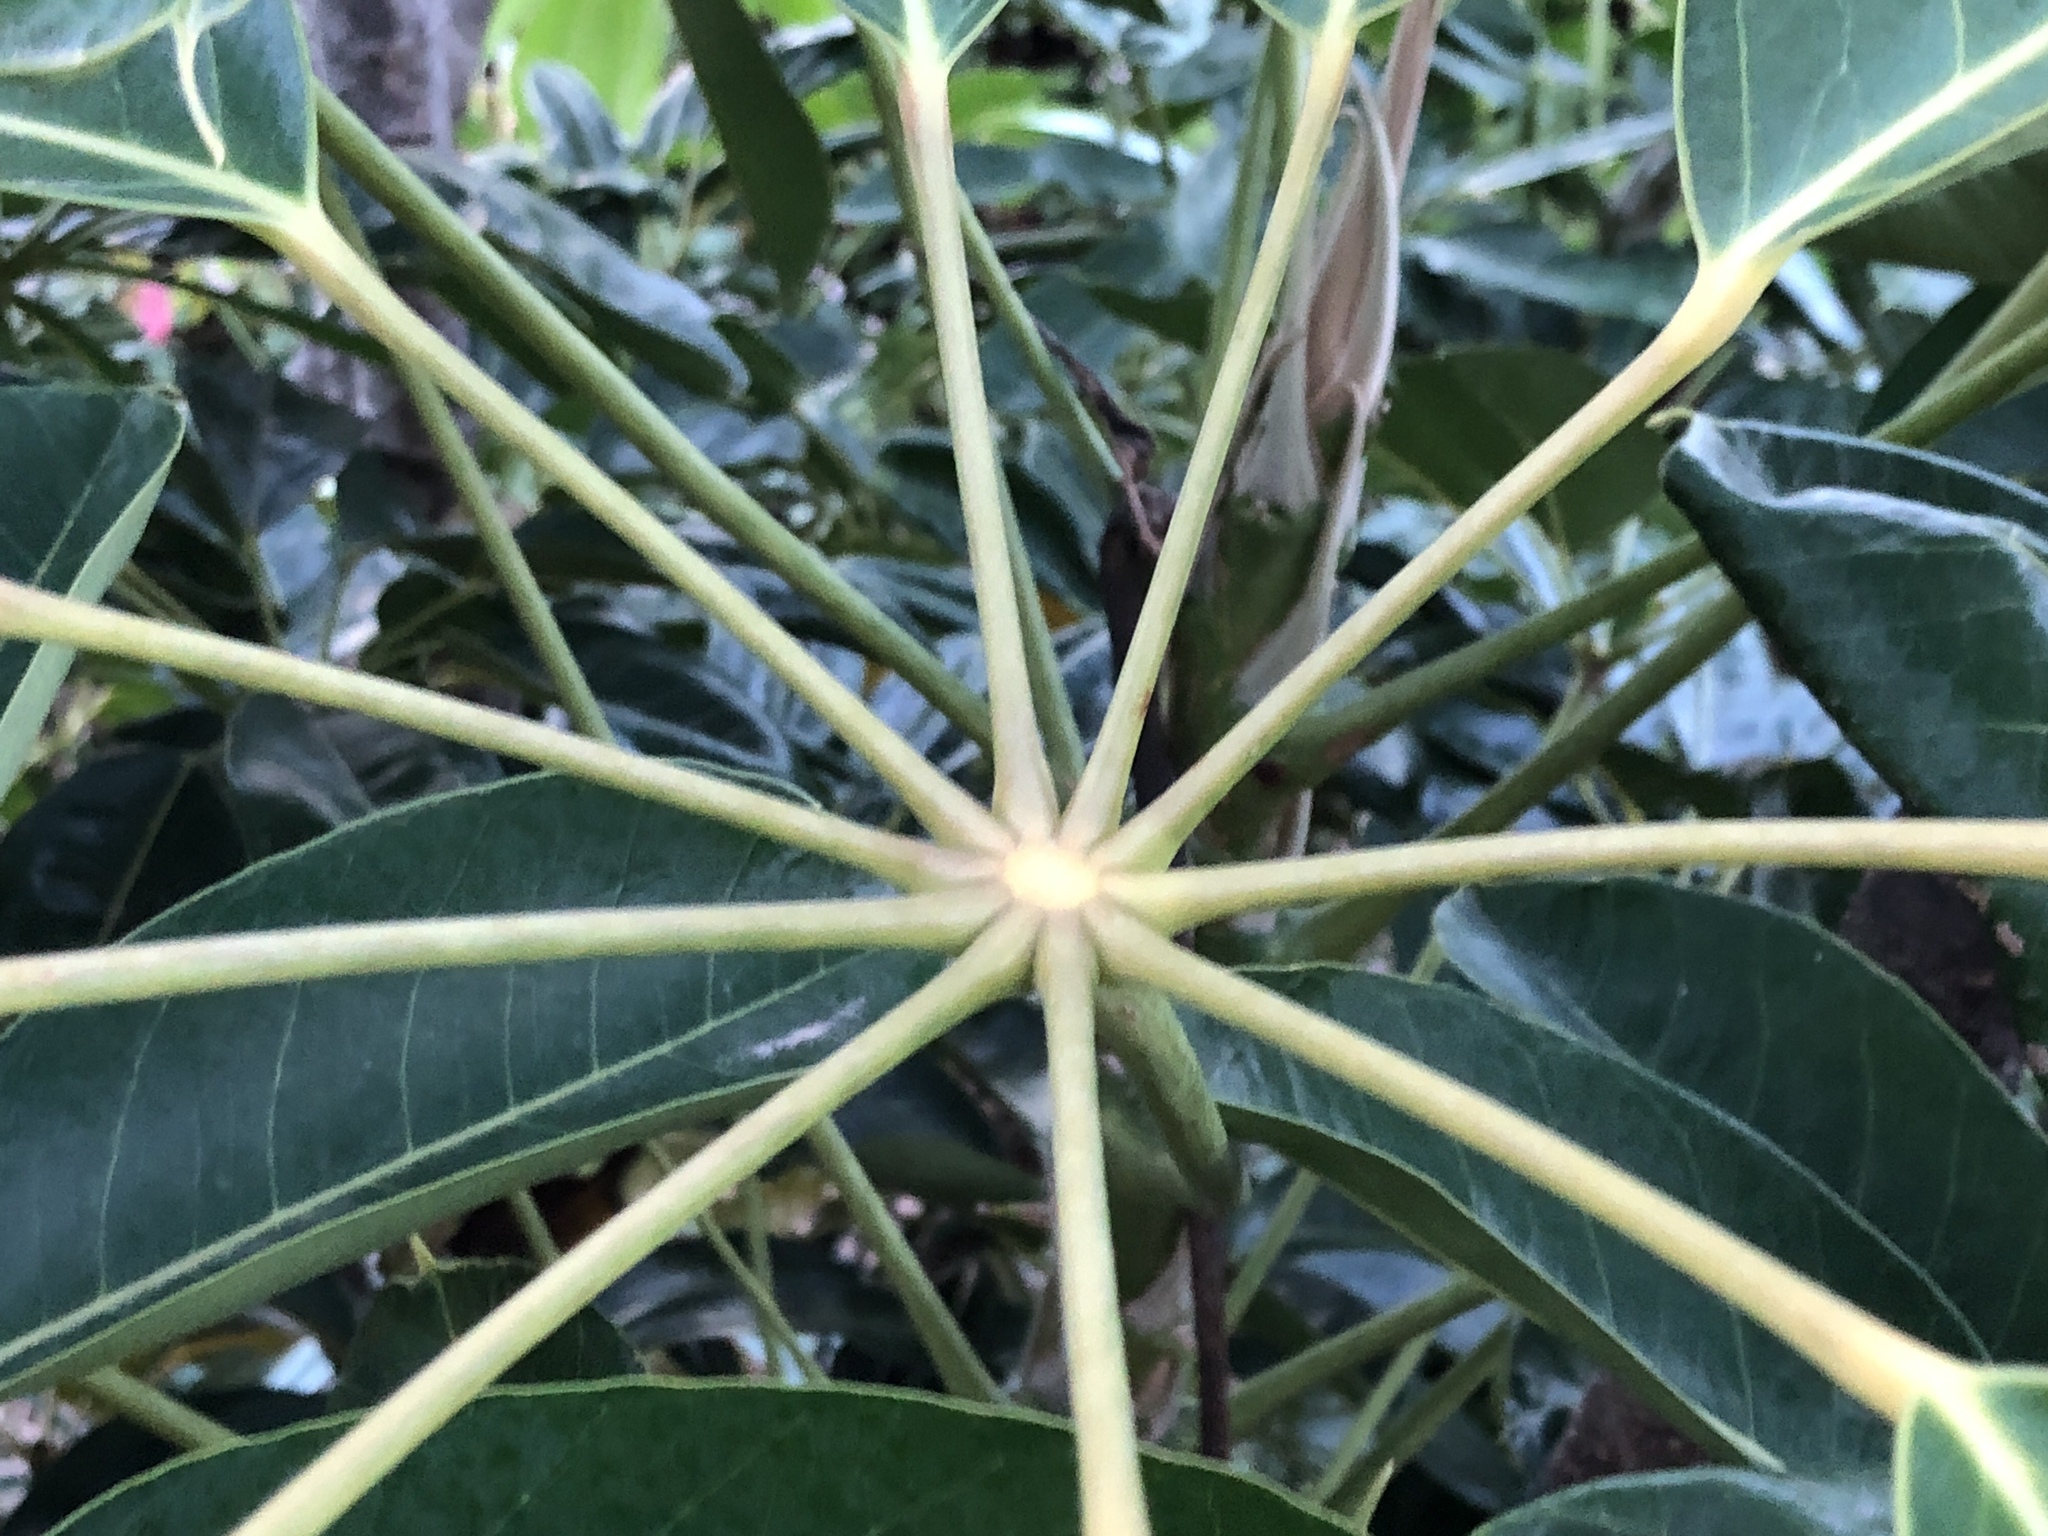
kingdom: Plantae
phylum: Tracheophyta
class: Magnoliopsida
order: Apiales
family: Araliaceae
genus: Heptapleurum
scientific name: Heptapleurum actinophyllum
